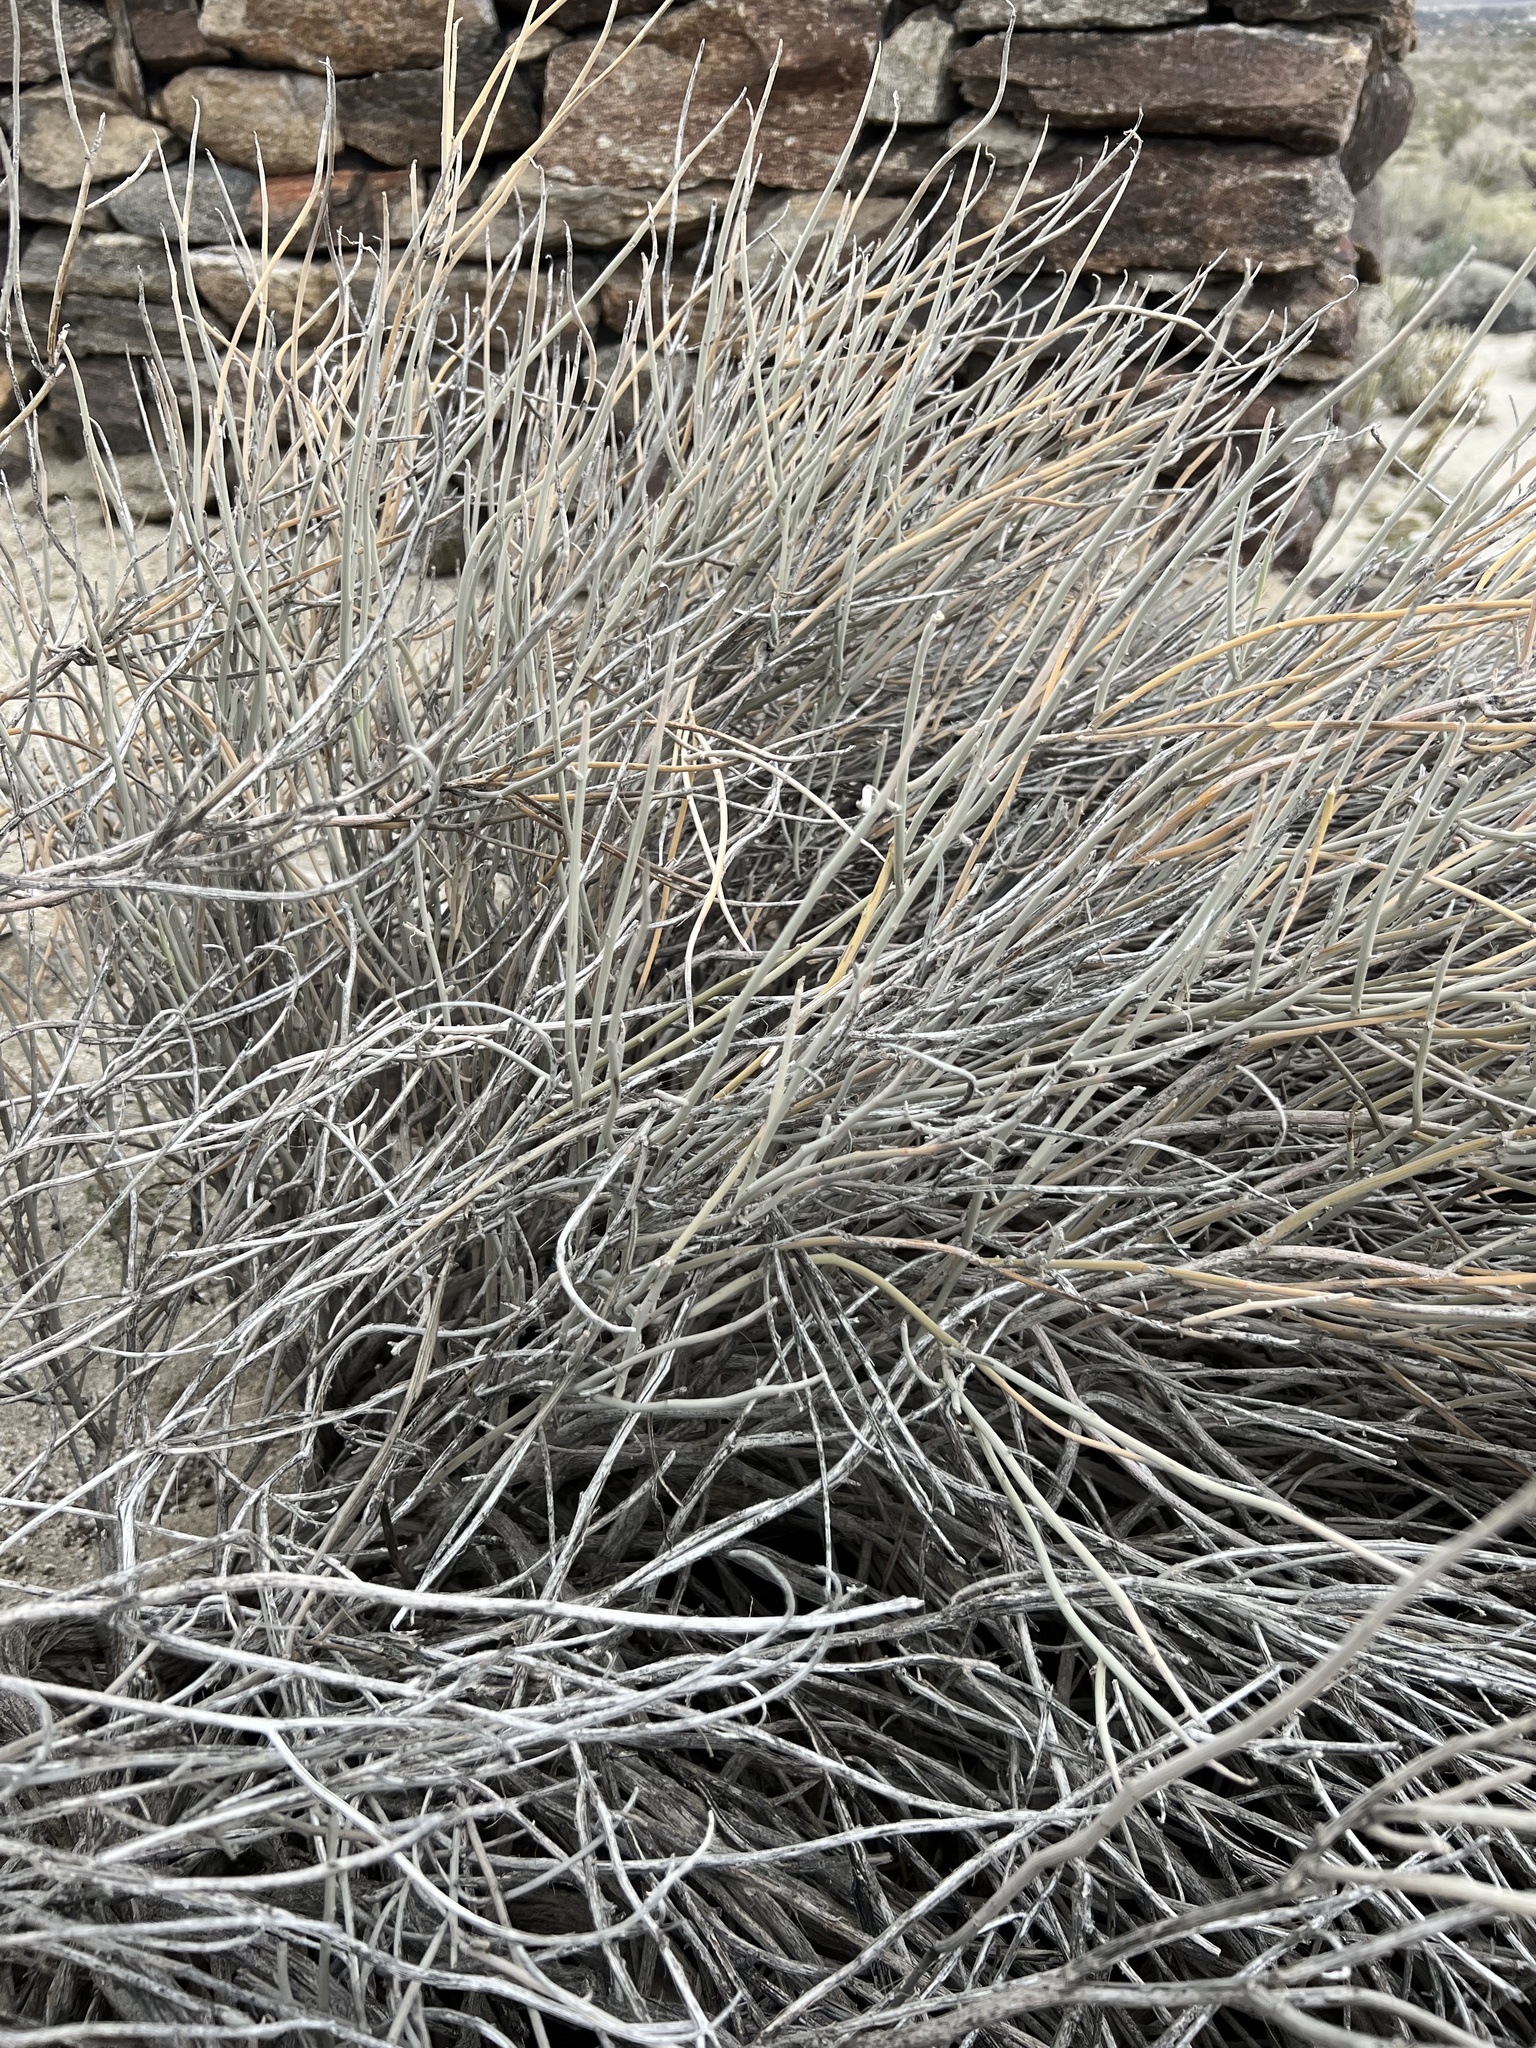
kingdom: Plantae
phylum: Tracheophyta
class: Magnoliopsida
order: Fabales
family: Fabaceae
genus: Senna
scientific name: Senna armata
